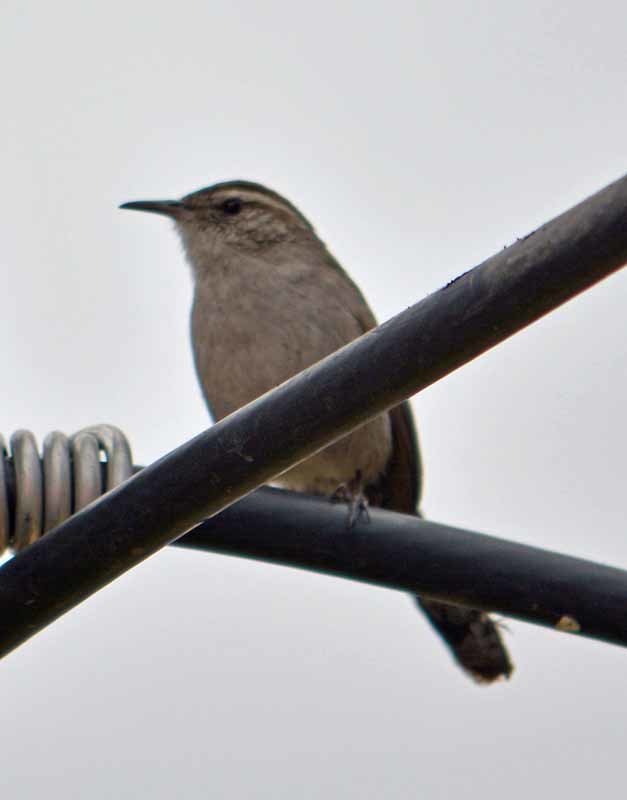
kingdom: Animalia
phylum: Chordata
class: Aves
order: Passeriformes
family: Troglodytidae
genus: Thryomanes
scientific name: Thryomanes bewickii
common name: Bewick's wren
